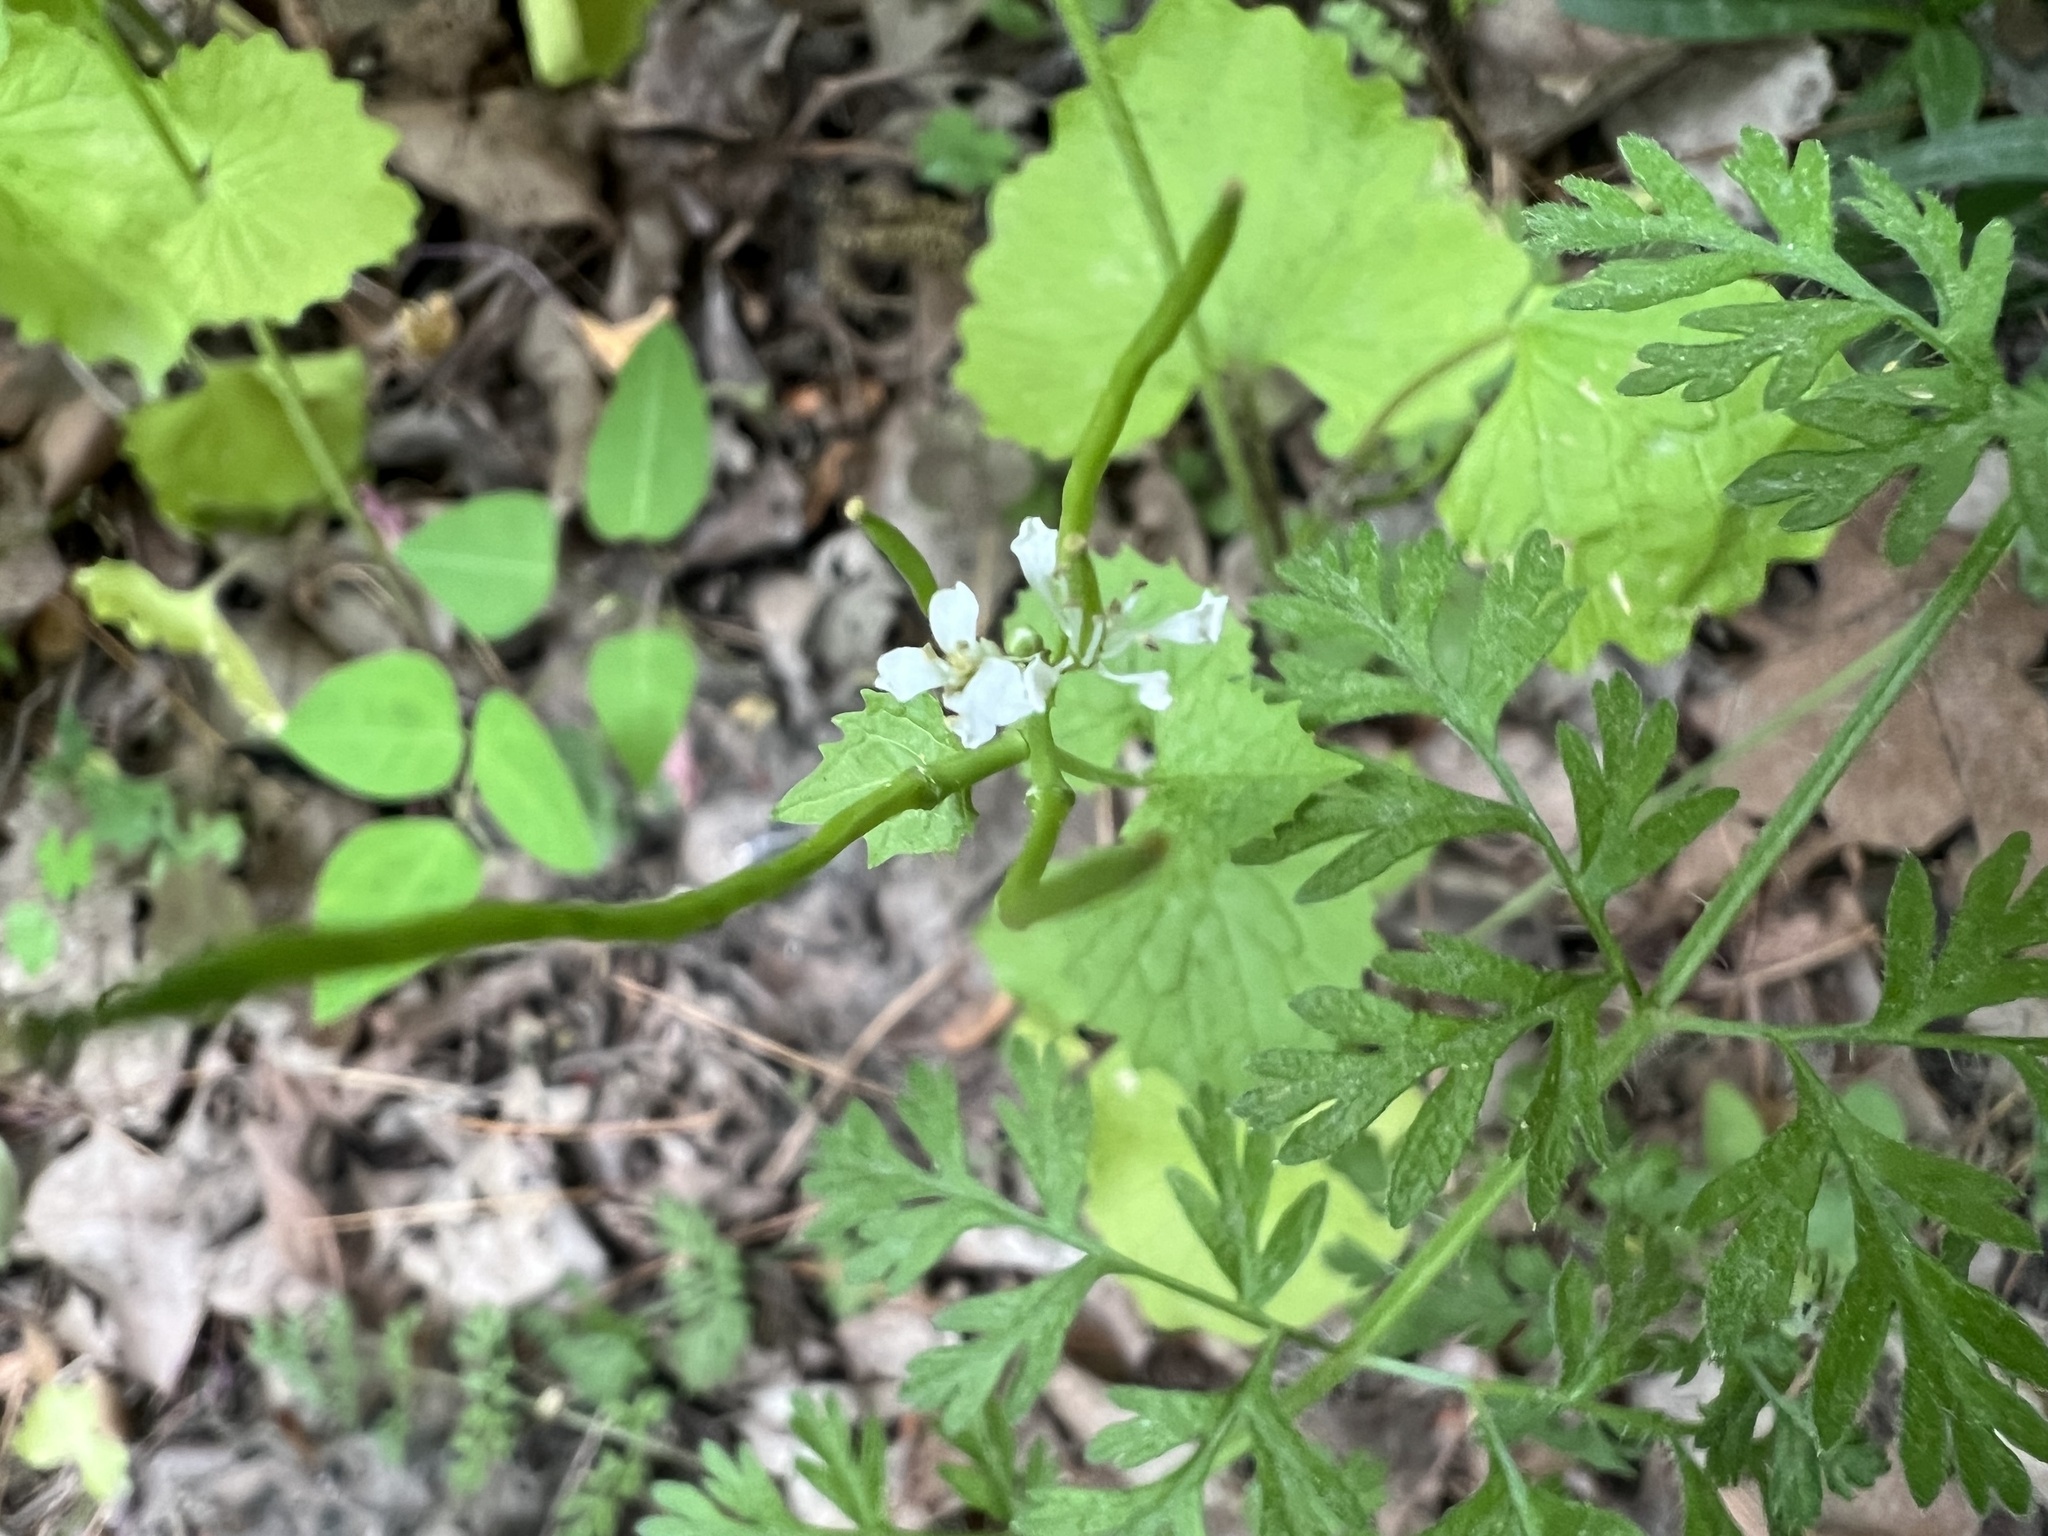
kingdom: Plantae
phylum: Tracheophyta
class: Magnoliopsida
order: Brassicales
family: Brassicaceae
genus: Alliaria
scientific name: Alliaria petiolata
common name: Garlic mustard
